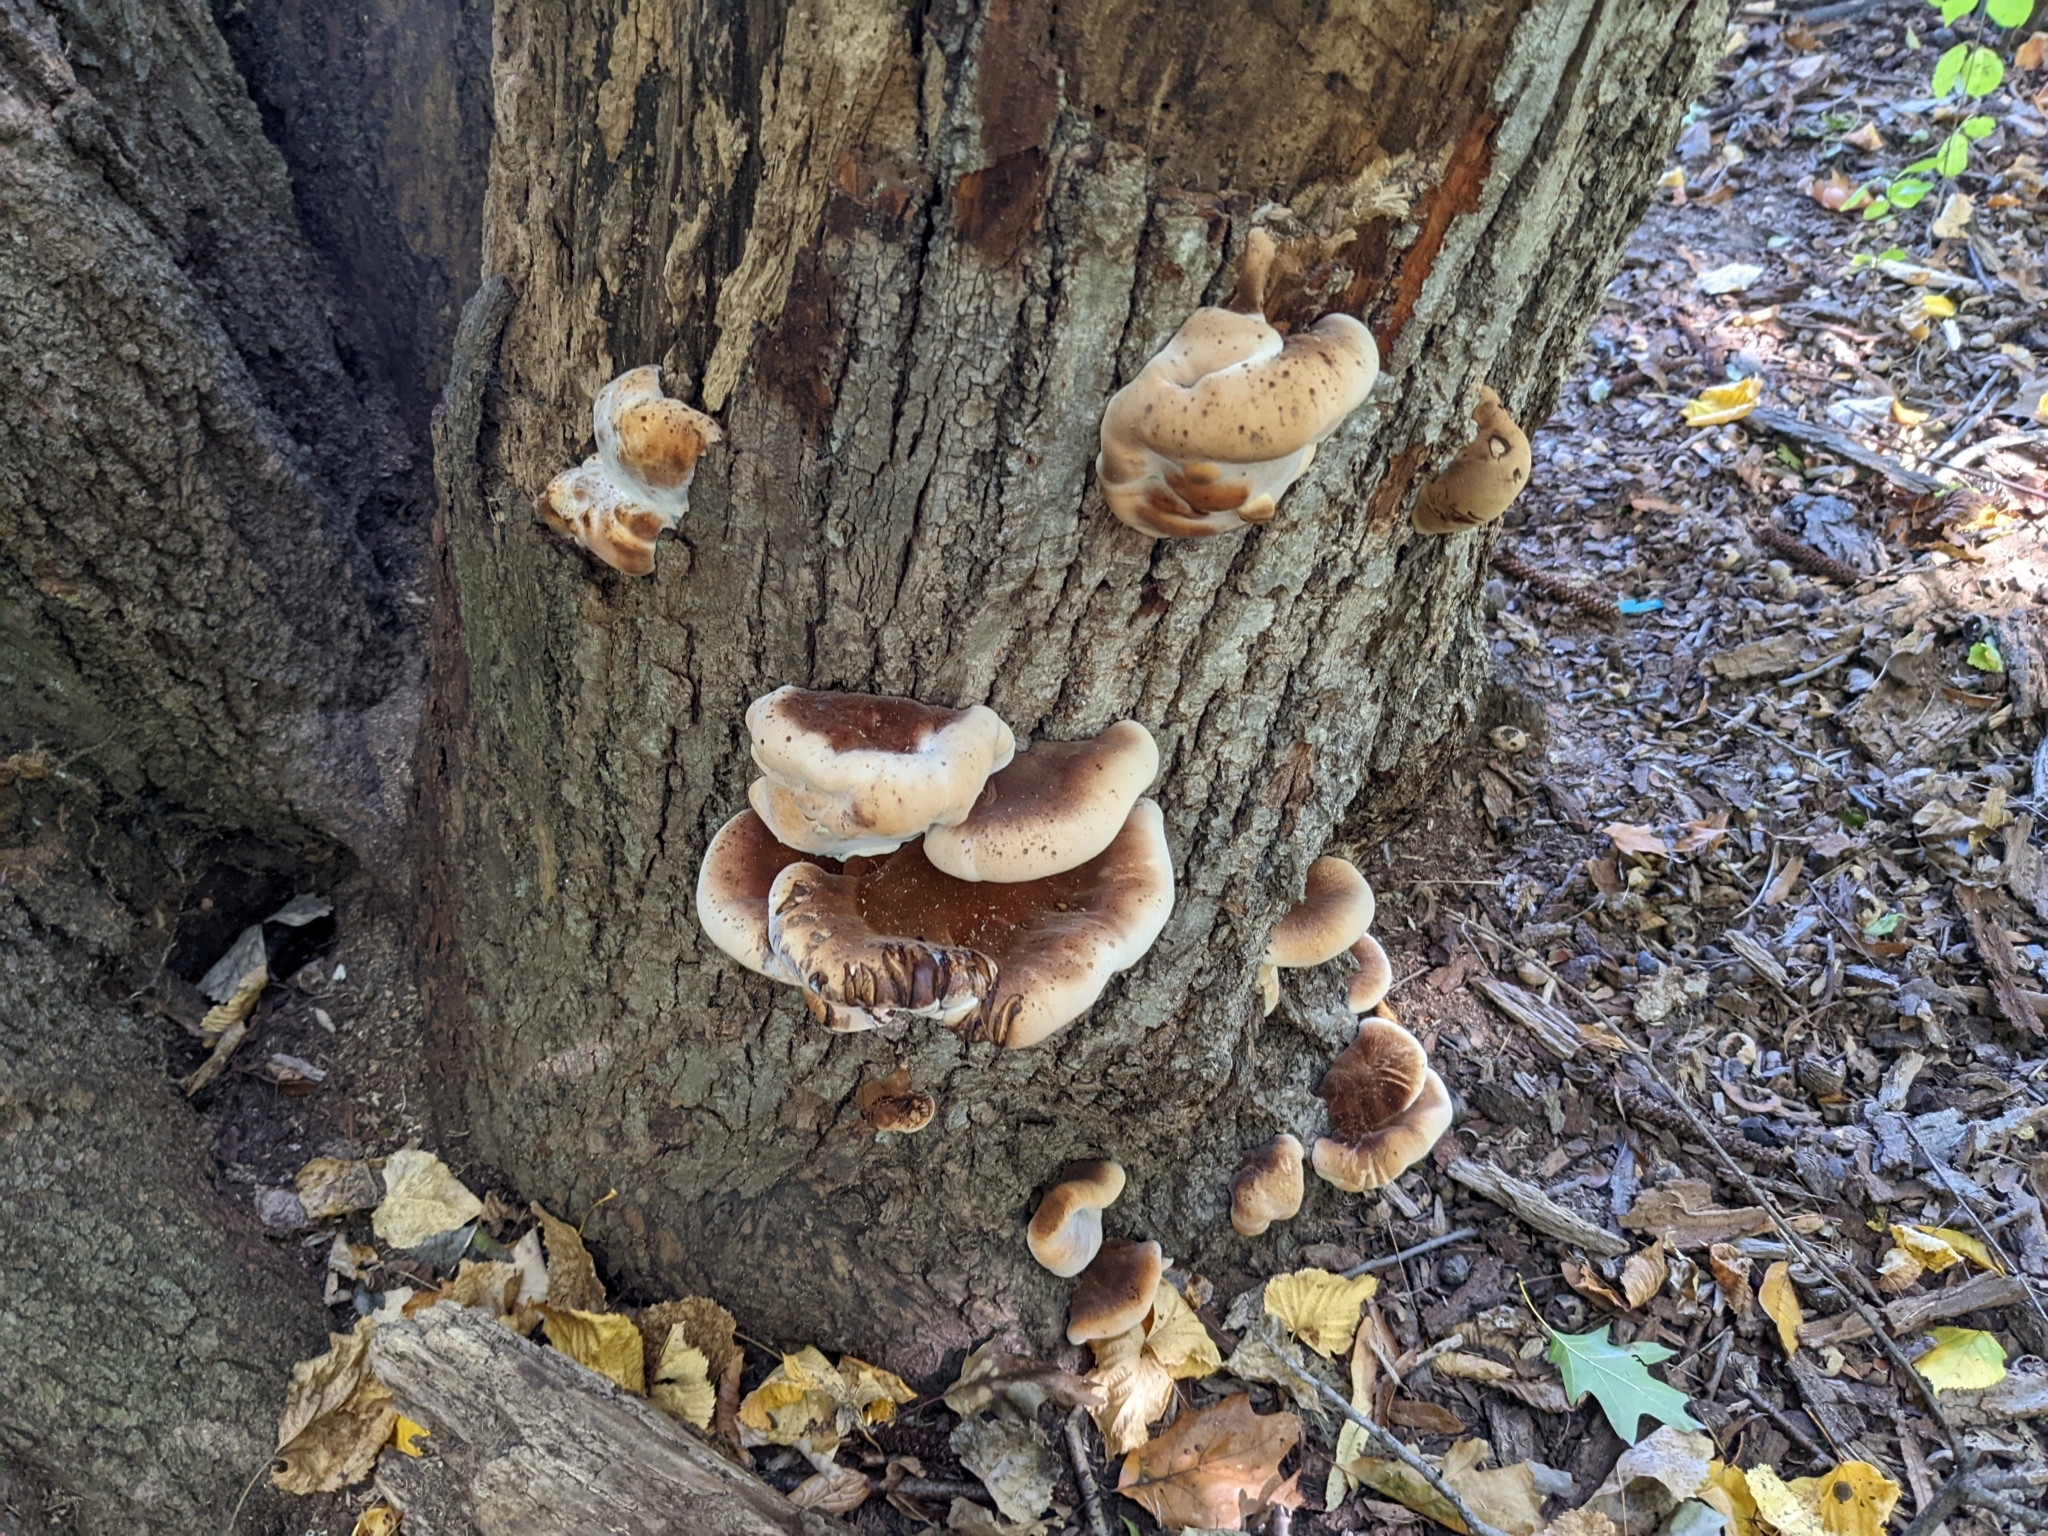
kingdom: Fungi
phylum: Basidiomycota
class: Agaricomycetes
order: Polyporales
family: Ischnodermataceae
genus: Ischnoderma
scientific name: Ischnoderma resinosum
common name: Resinous polypore
